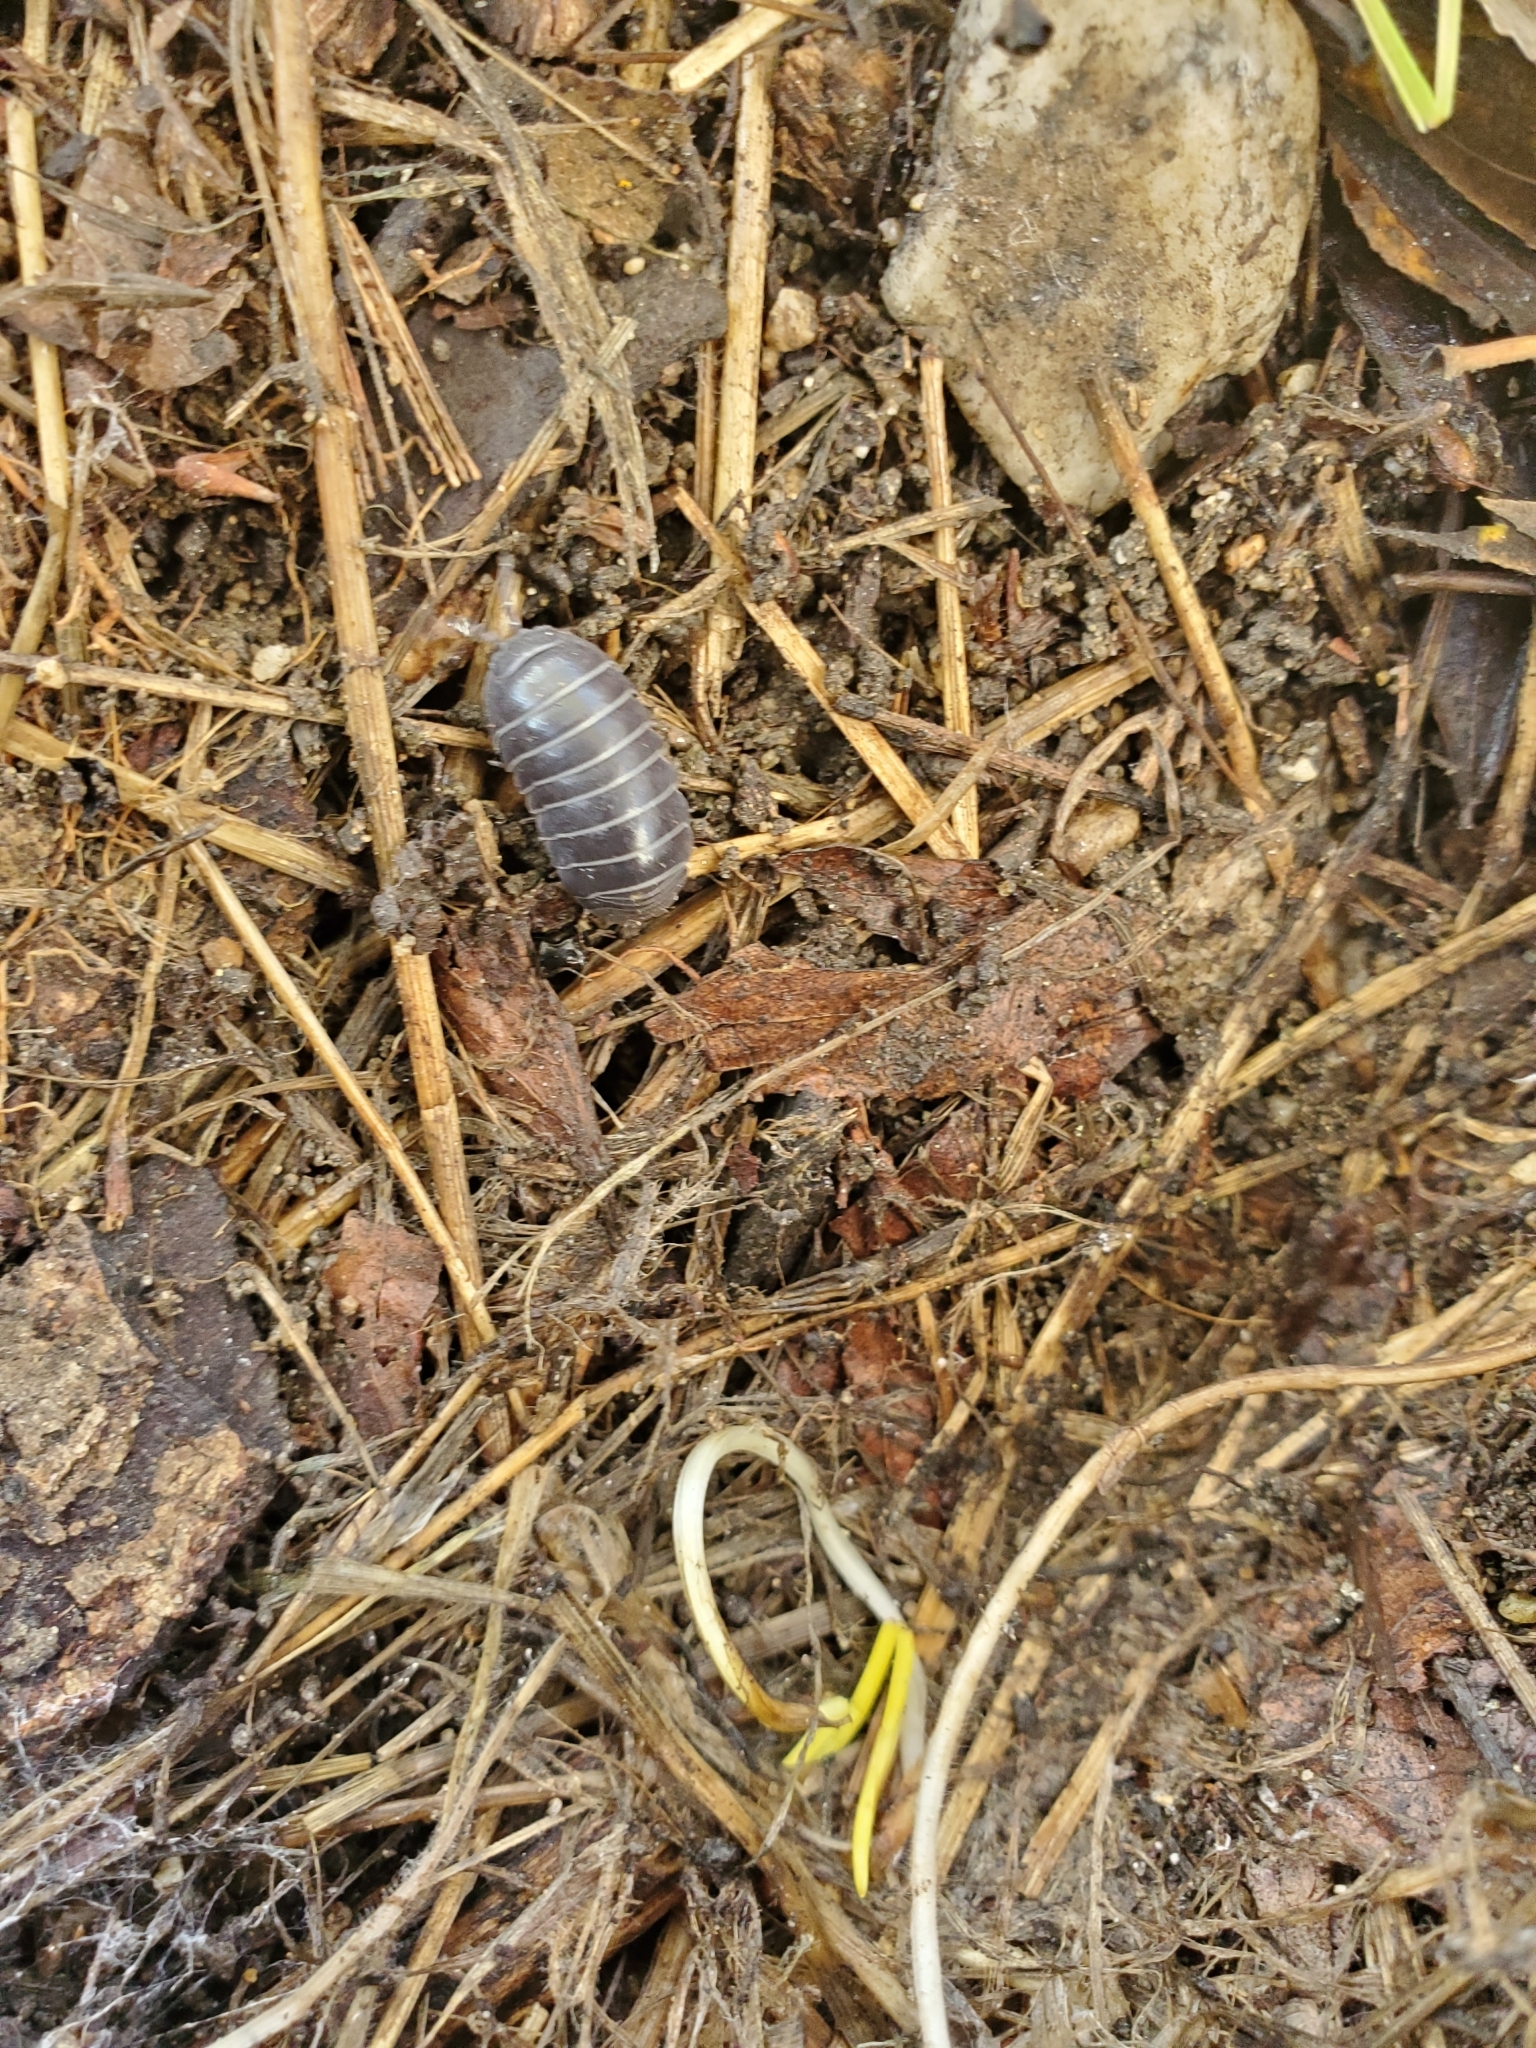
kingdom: Animalia
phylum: Arthropoda
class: Malacostraca
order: Isopoda
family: Armadillidiidae
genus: Armadillidium
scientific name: Armadillidium vulgare
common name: Common pill woodlouse
